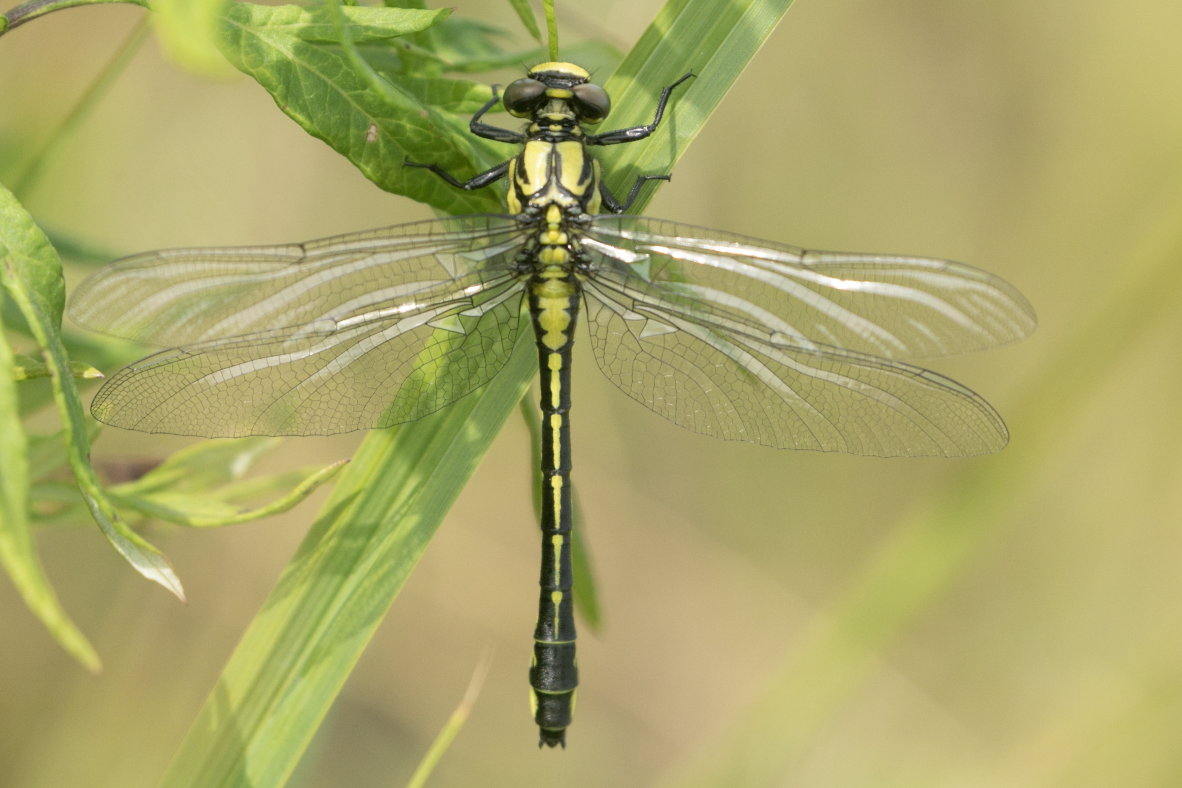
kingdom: Animalia
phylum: Arthropoda
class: Insecta
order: Odonata
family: Gomphidae
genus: Gomphus
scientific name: Gomphus vulgatissimus
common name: Club-tailed dragonfly
